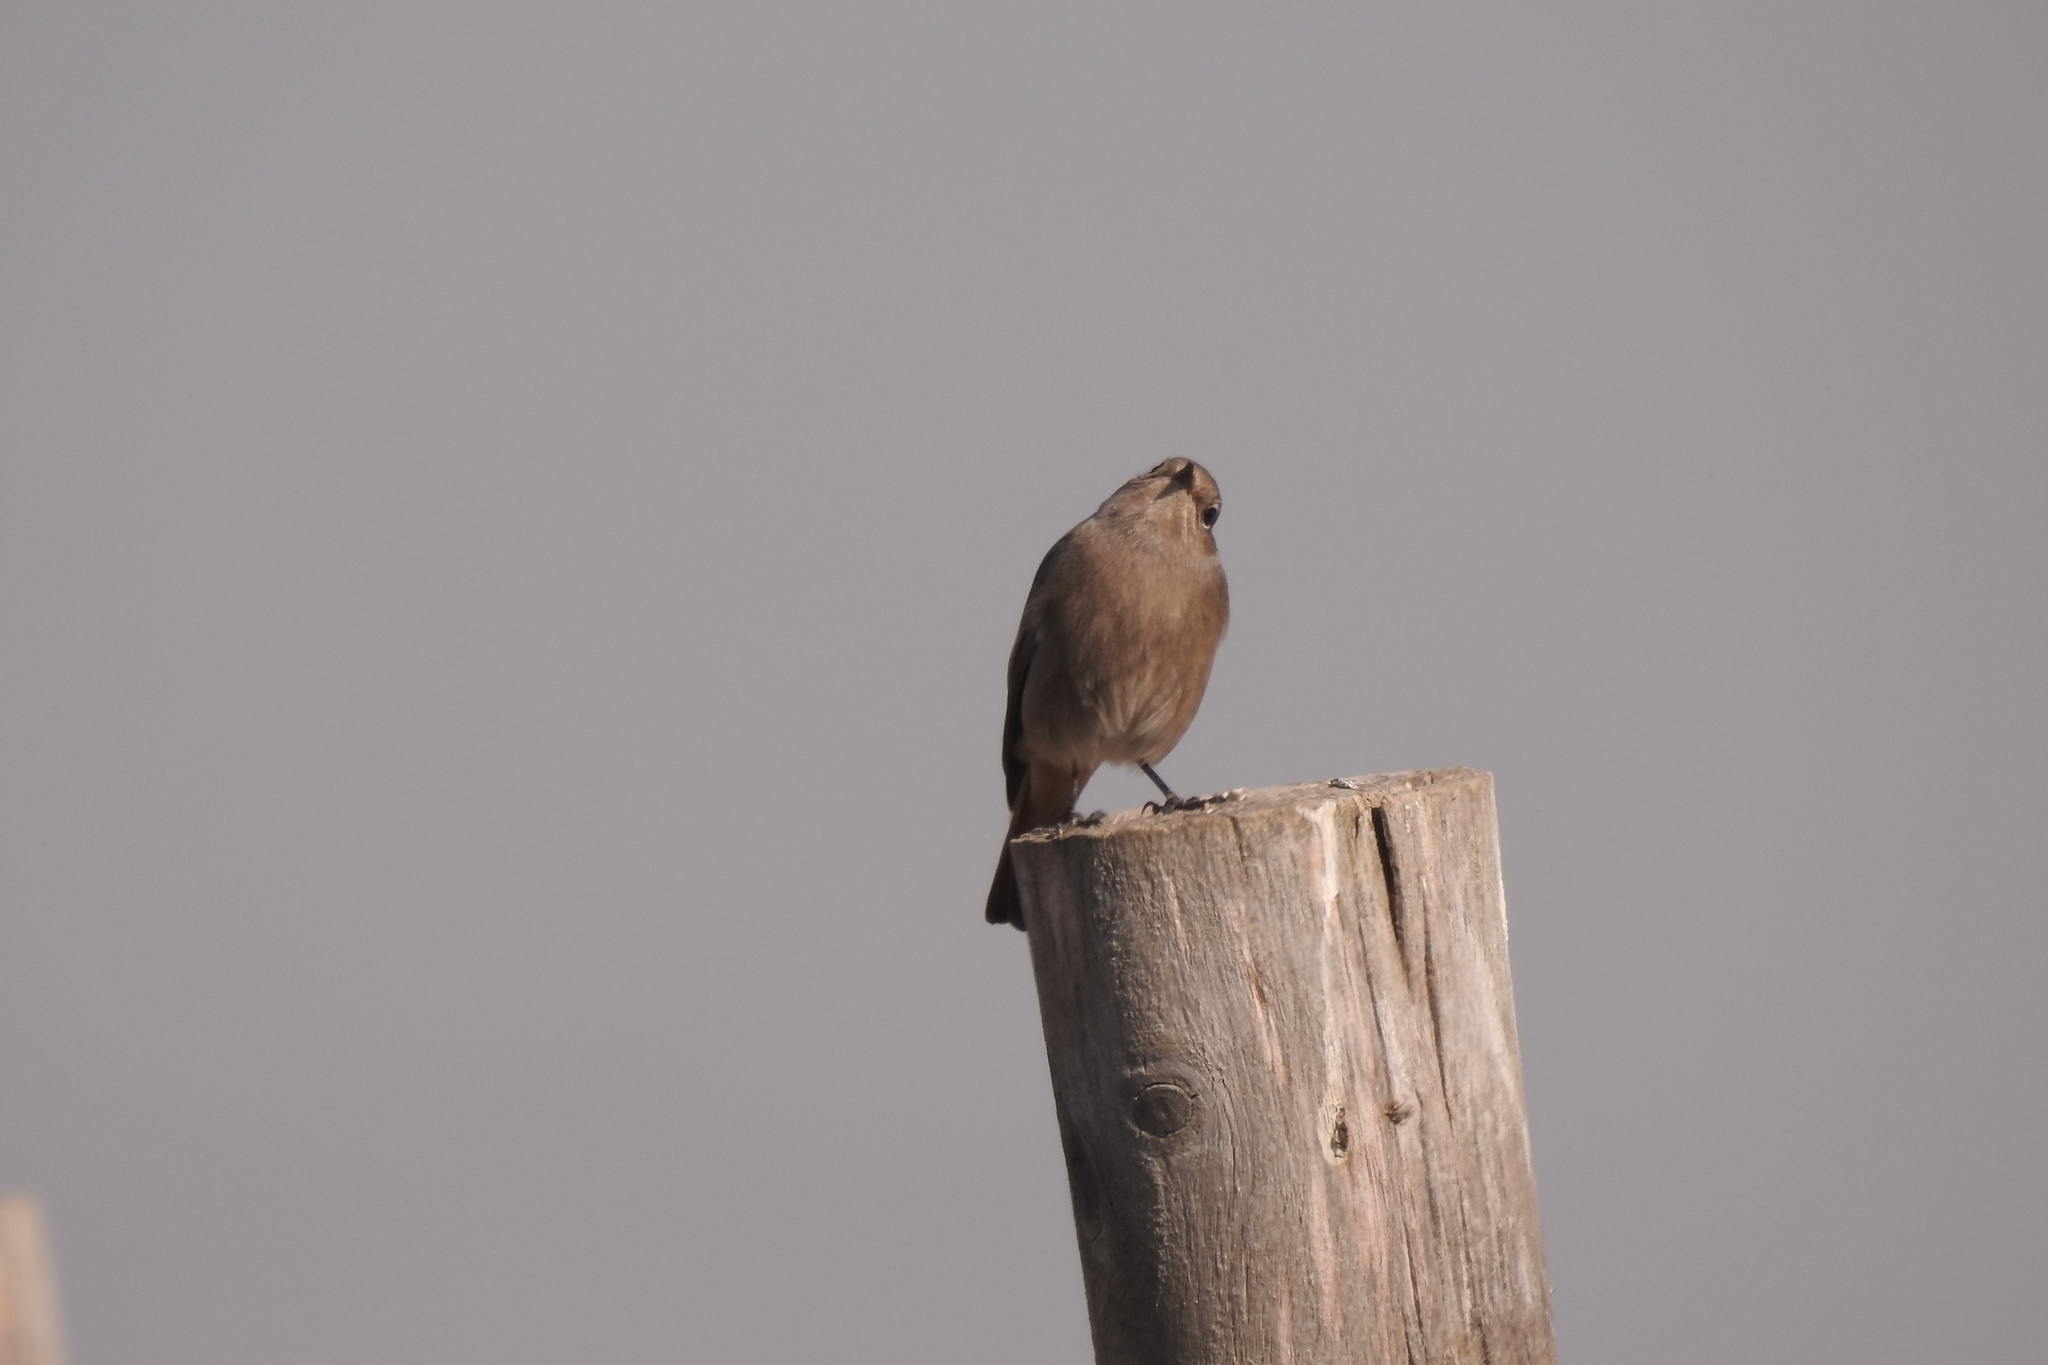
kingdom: Animalia
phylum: Chordata
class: Aves
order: Passeriformes
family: Muscicapidae
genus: Phoenicurus
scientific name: Phoenicurus ochruros
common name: Black redstart
